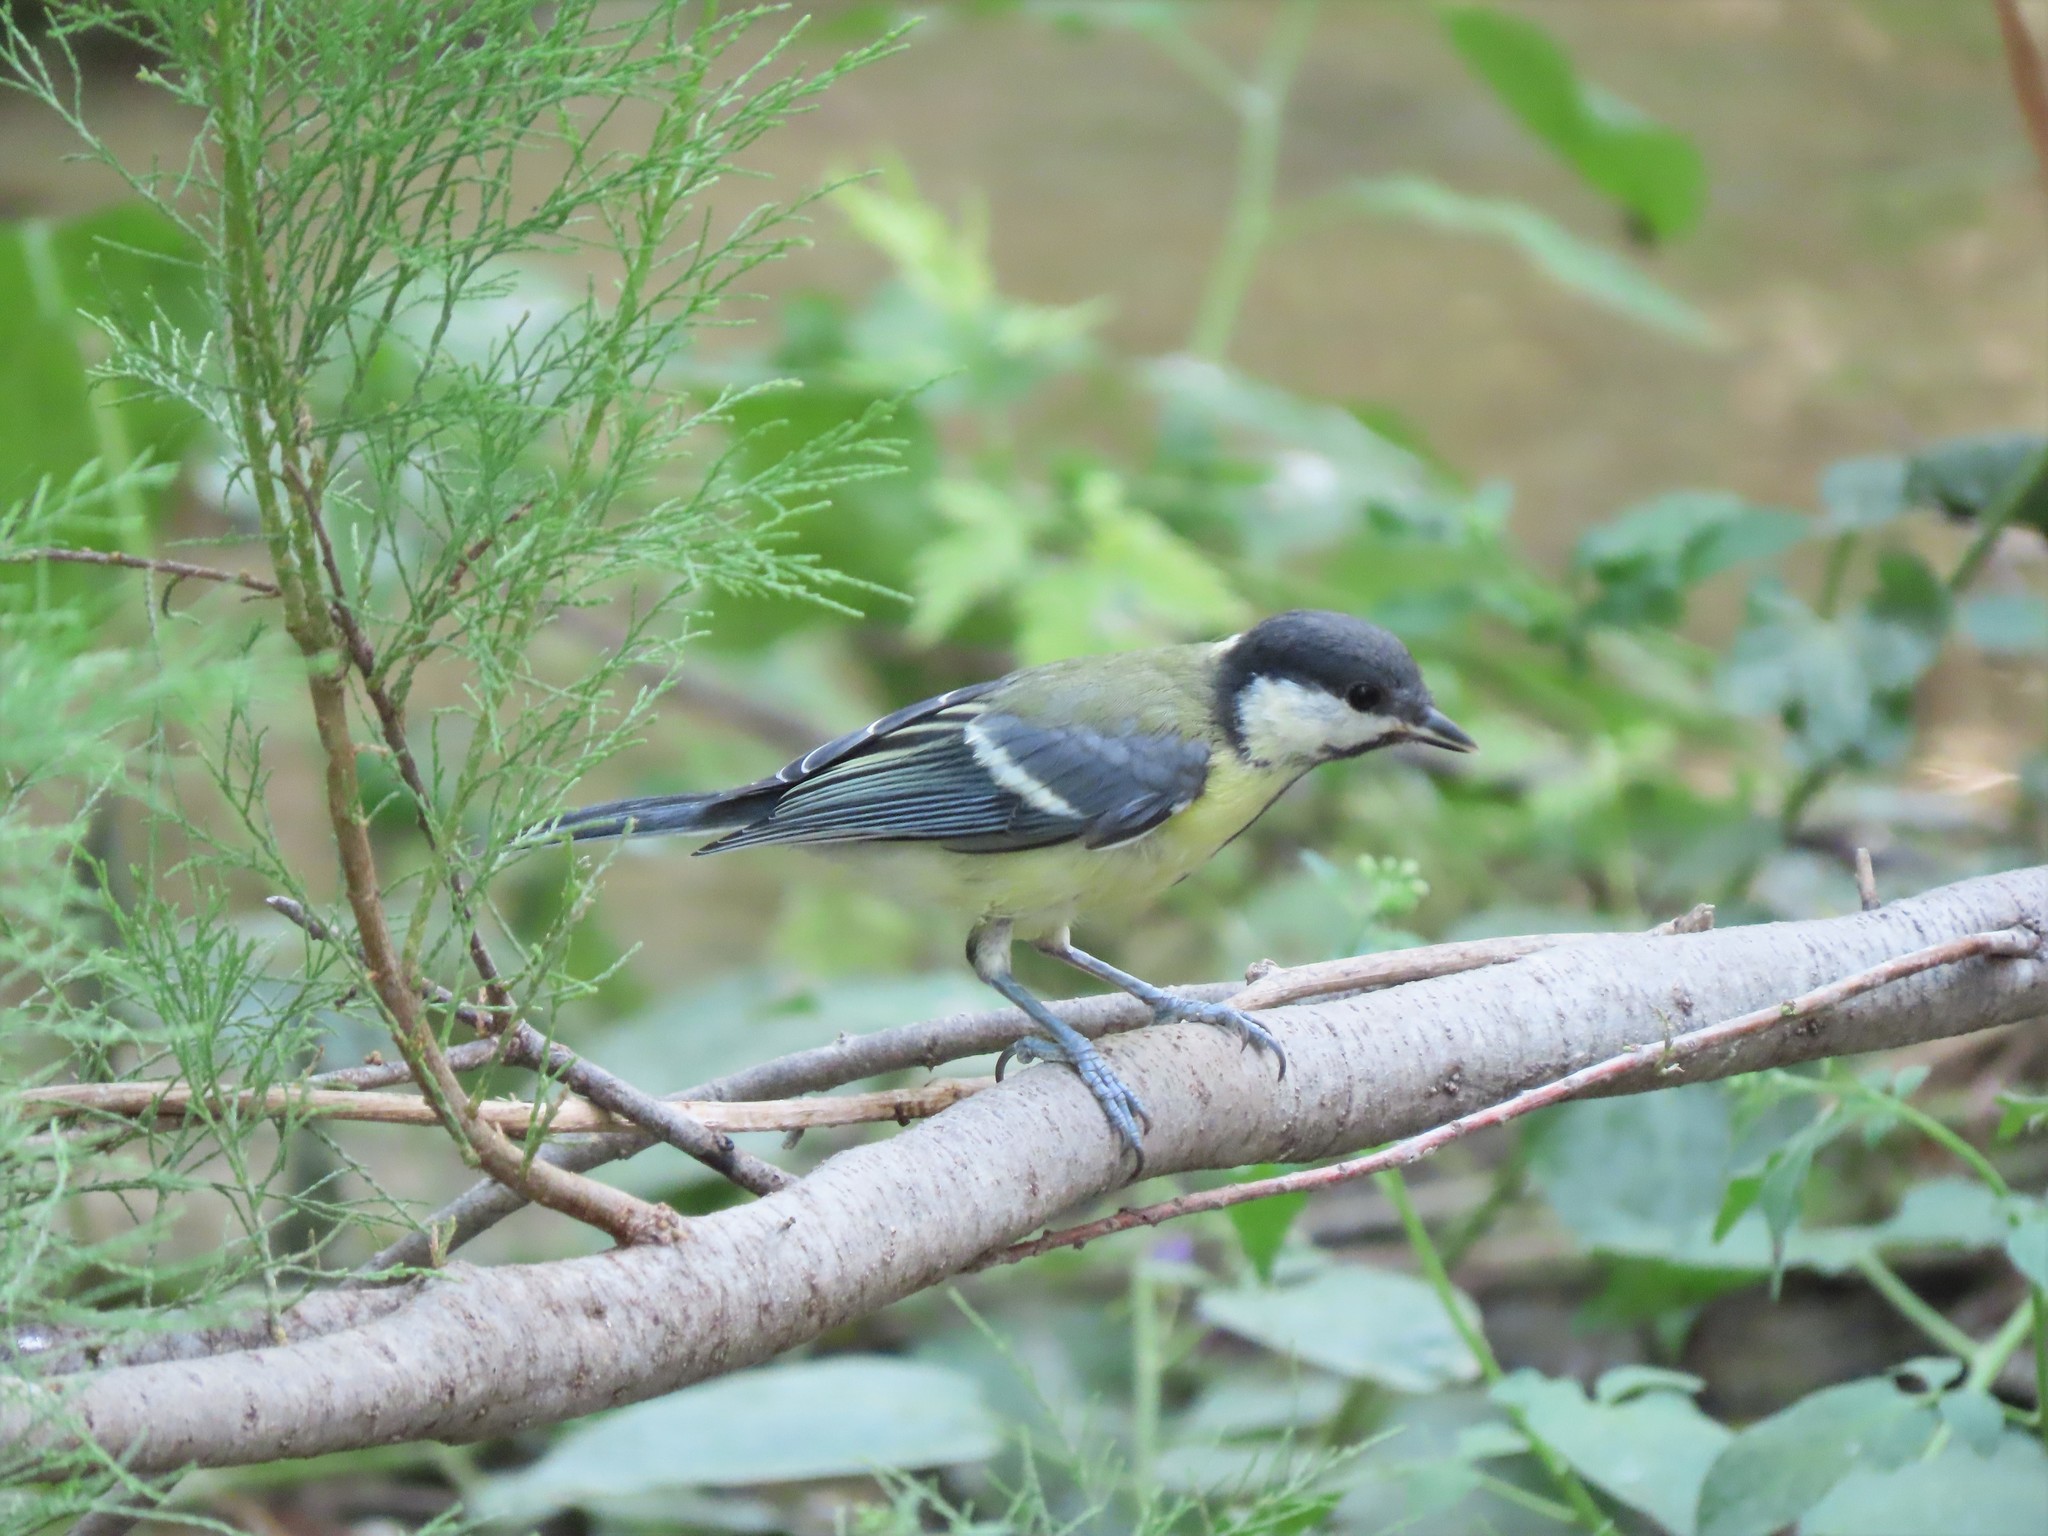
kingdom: Animalia
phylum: Chordata
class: Aves
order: Passeriformes
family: Paridae
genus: Parus
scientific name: Parus major
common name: Great tit
